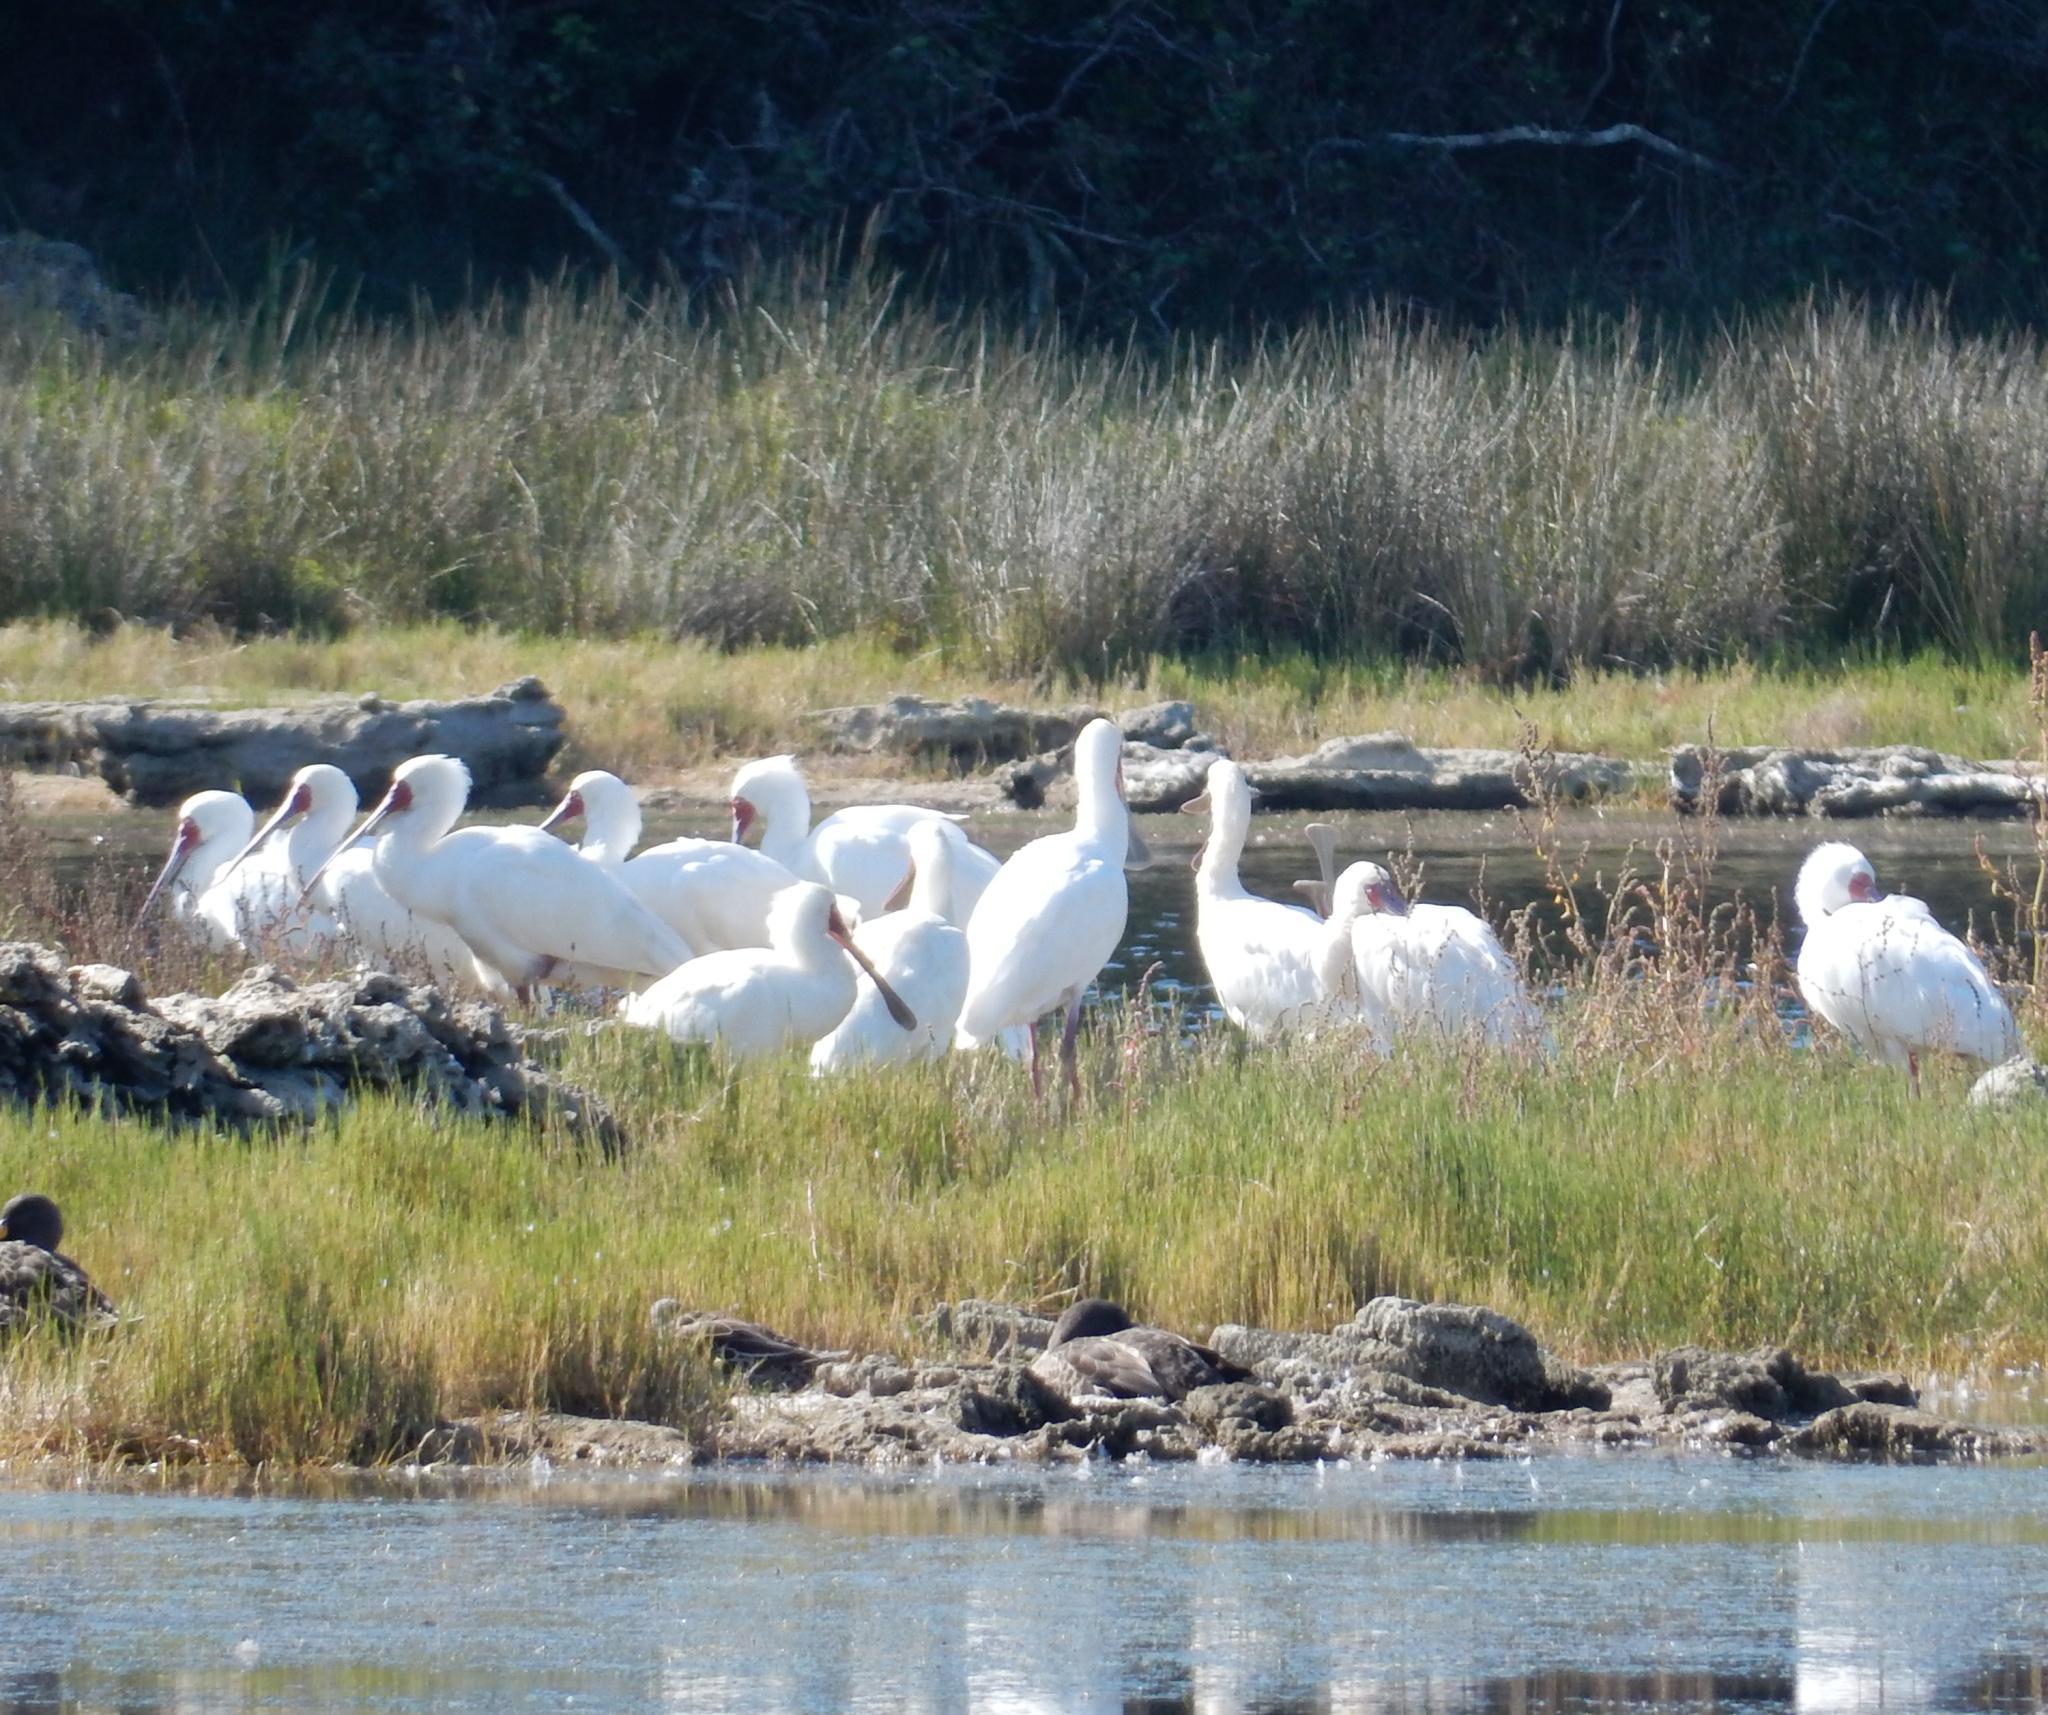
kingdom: Animalia
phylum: Chordata
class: Aves
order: Pelecaniformes
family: Threskiornithidae
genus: Platalea
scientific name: Platalea alba
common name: African spoonbill
